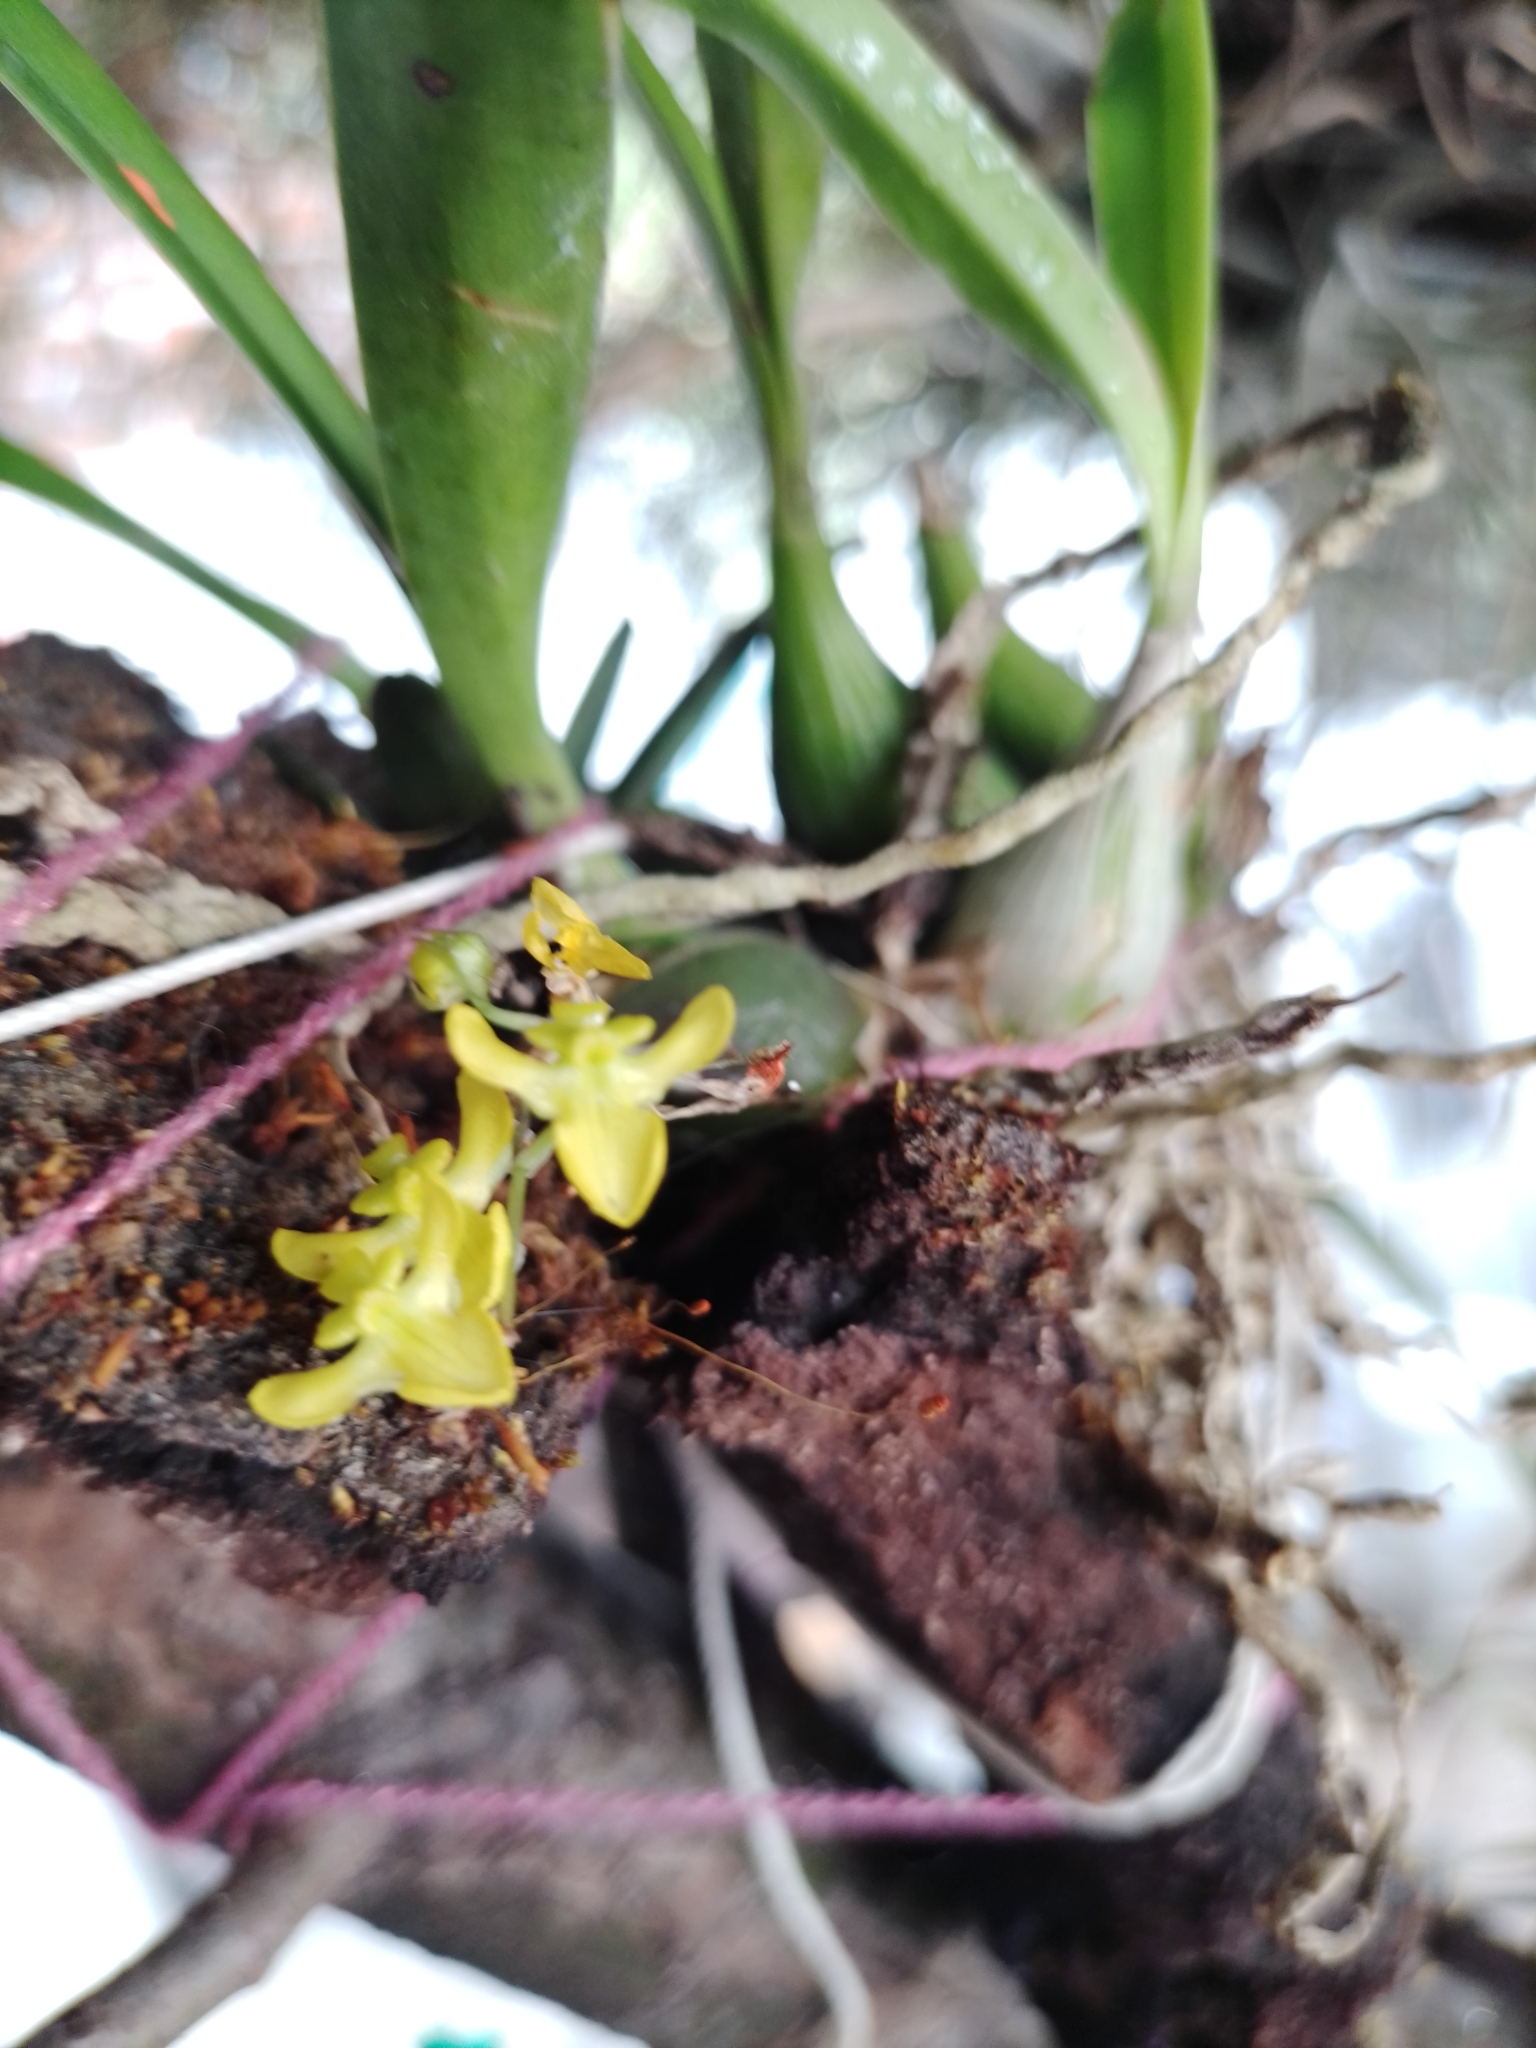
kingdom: Plantae
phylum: Tracheophyta
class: Liliopsida
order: Asparagales
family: Orchidaceae
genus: Erycina
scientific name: Erycina hyalinobulbon
